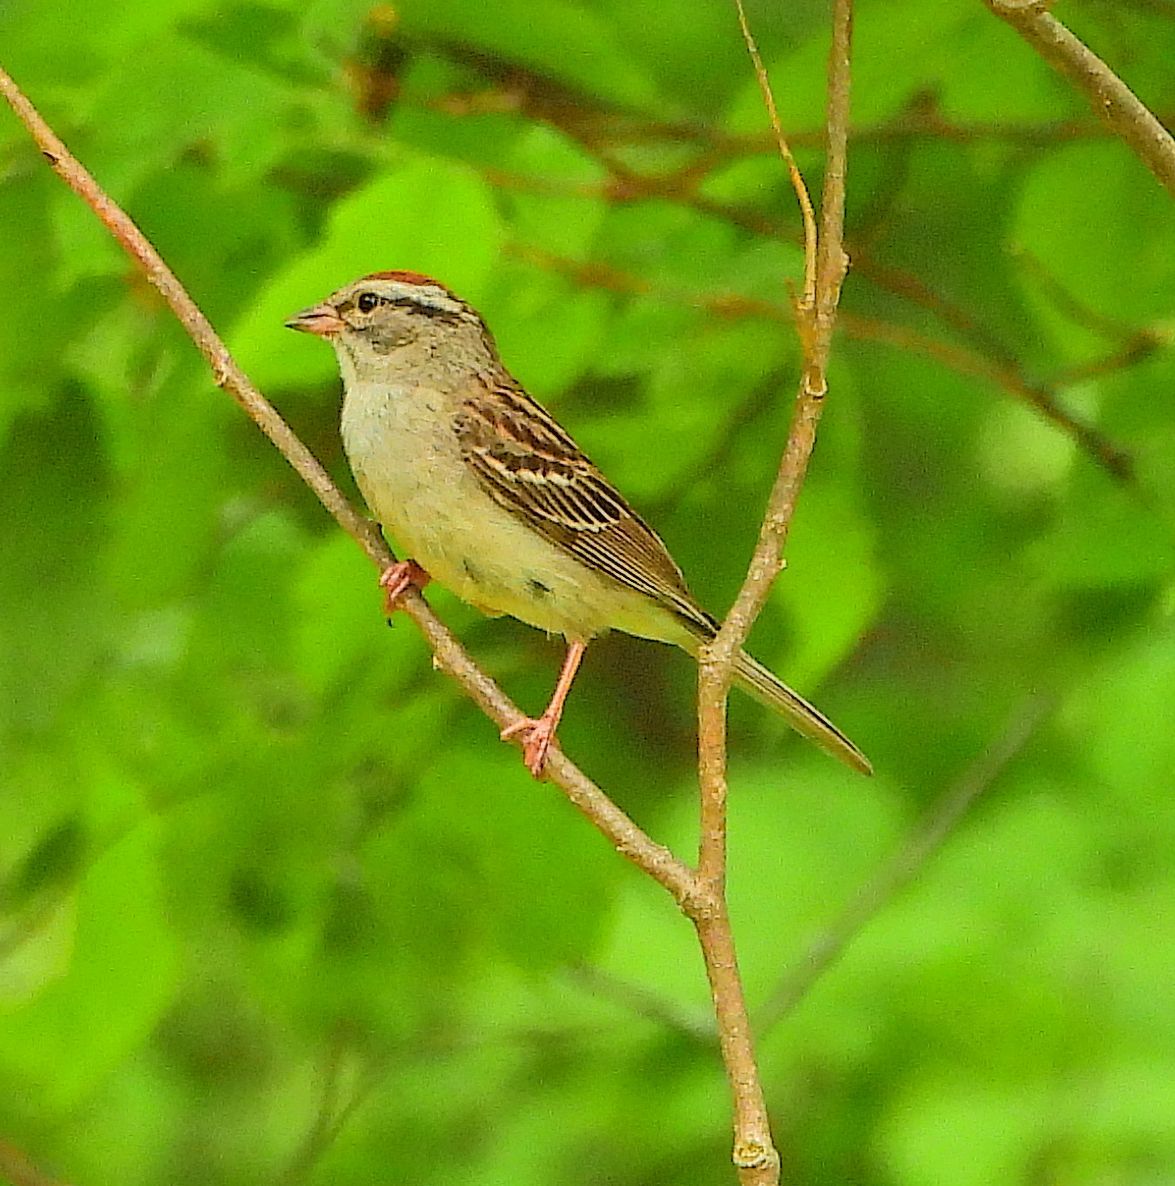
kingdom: Animalia
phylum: Chordata
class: Aves
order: Passeriformes
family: Passerellidae
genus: Spizella
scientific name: Spizella passerina
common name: Chipping sparrow
